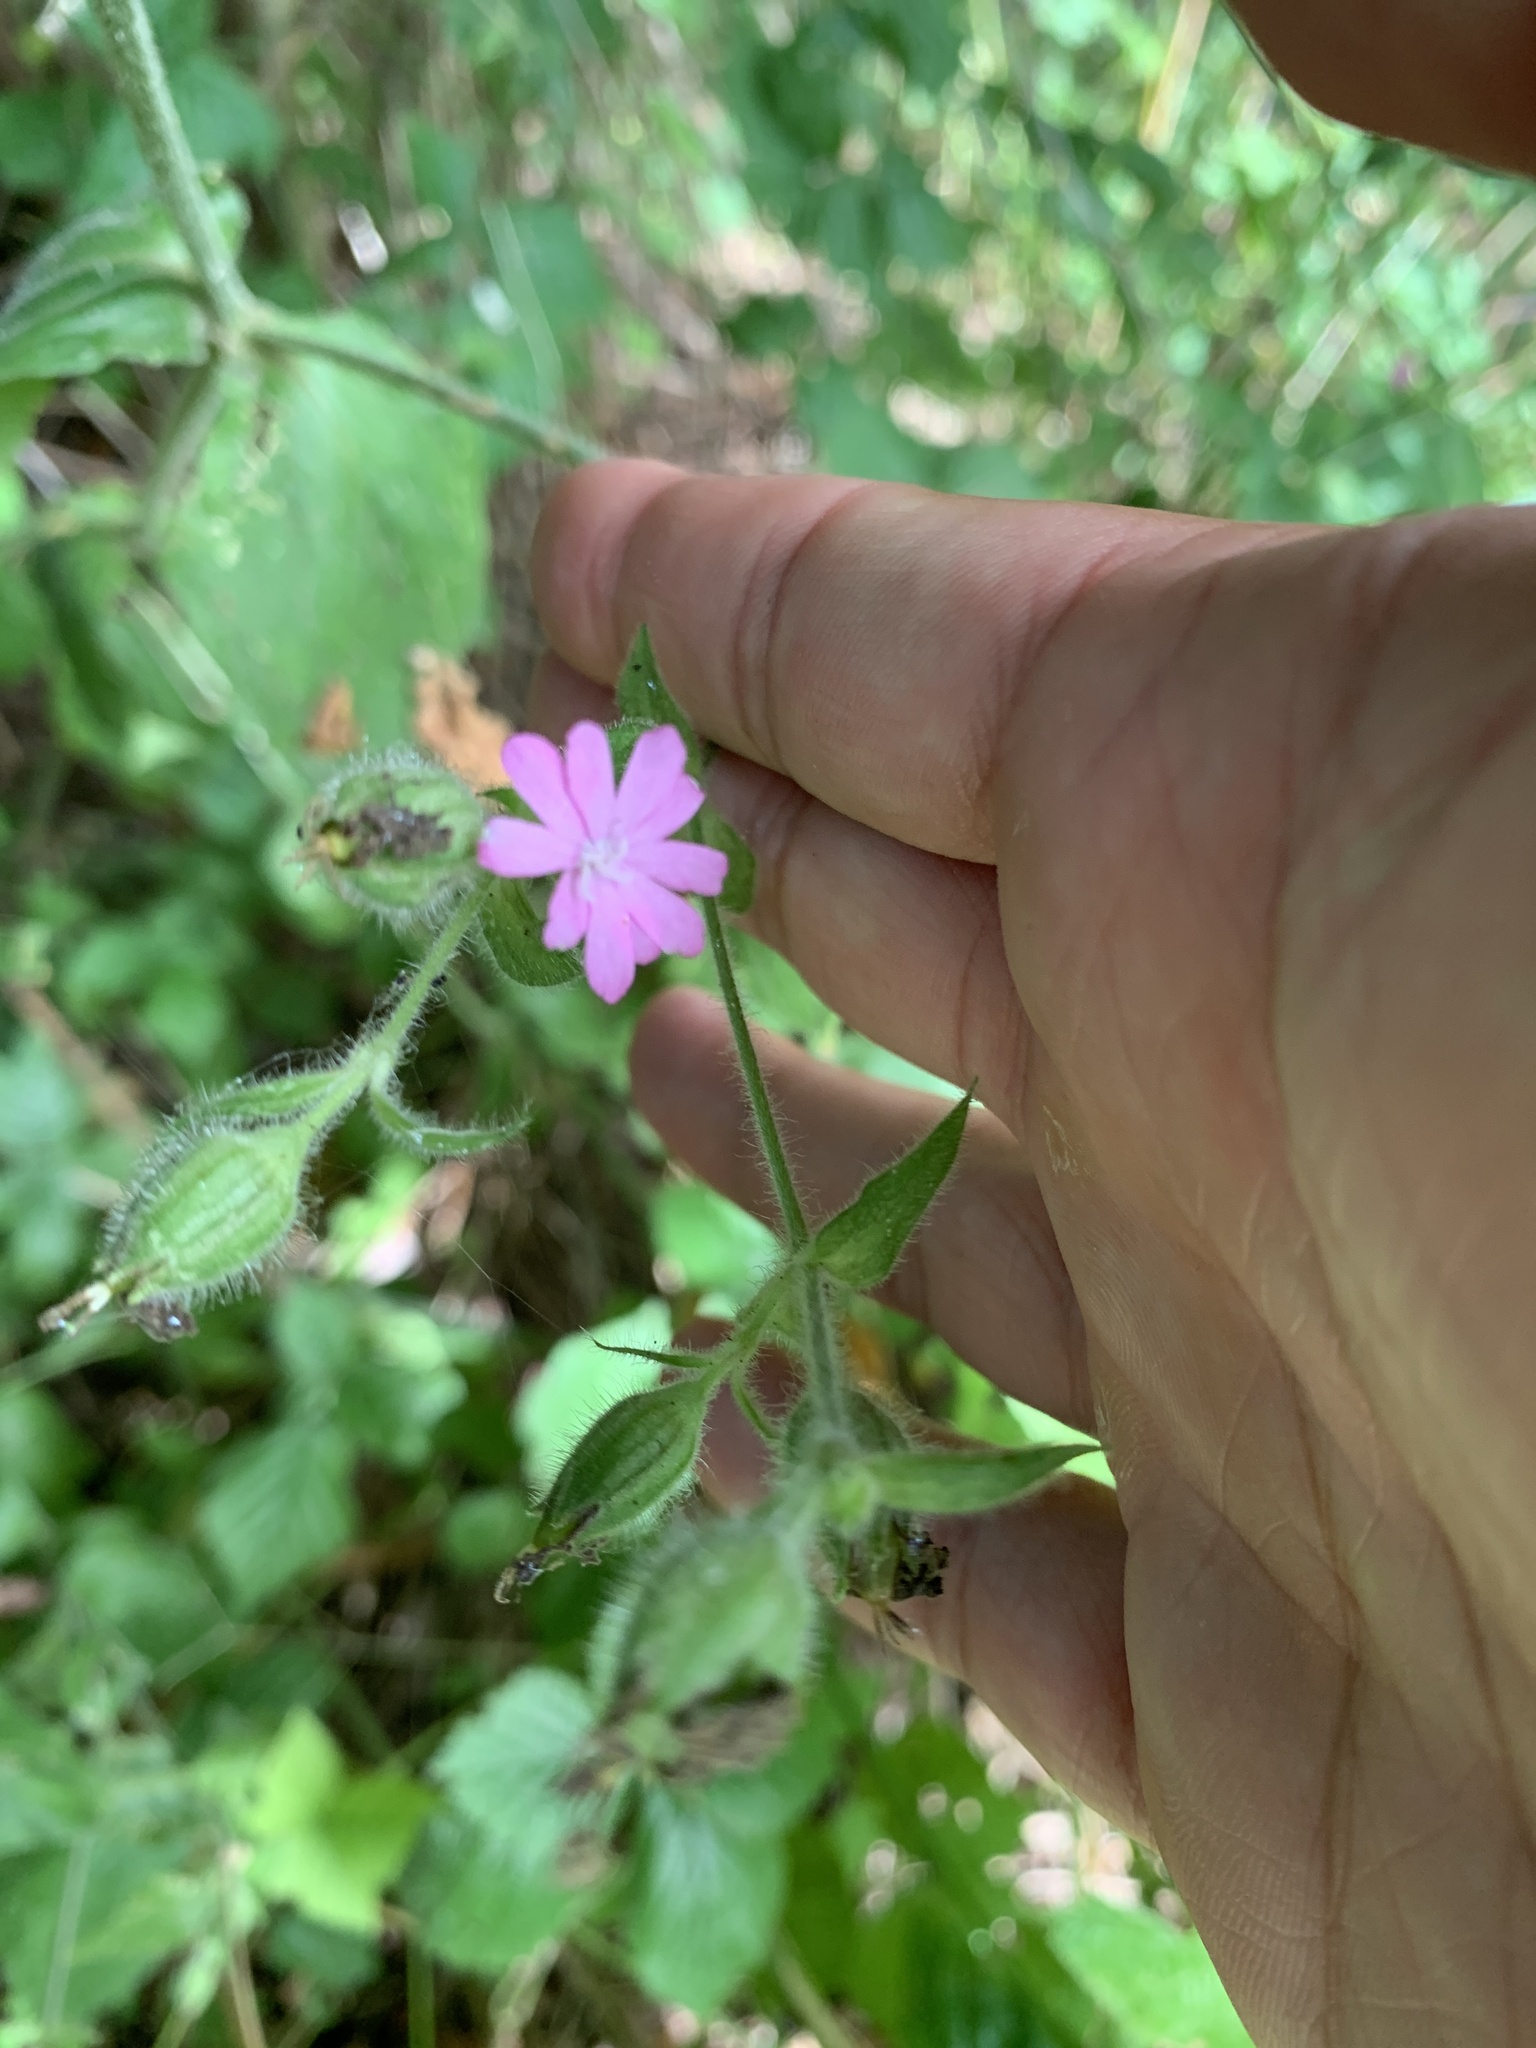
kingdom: Plantae
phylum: Tracheophyta
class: Magnoliopsida
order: Caryophyllales
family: Caryophyllaceae
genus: Silene
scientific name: Silene dioica
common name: Red campion
